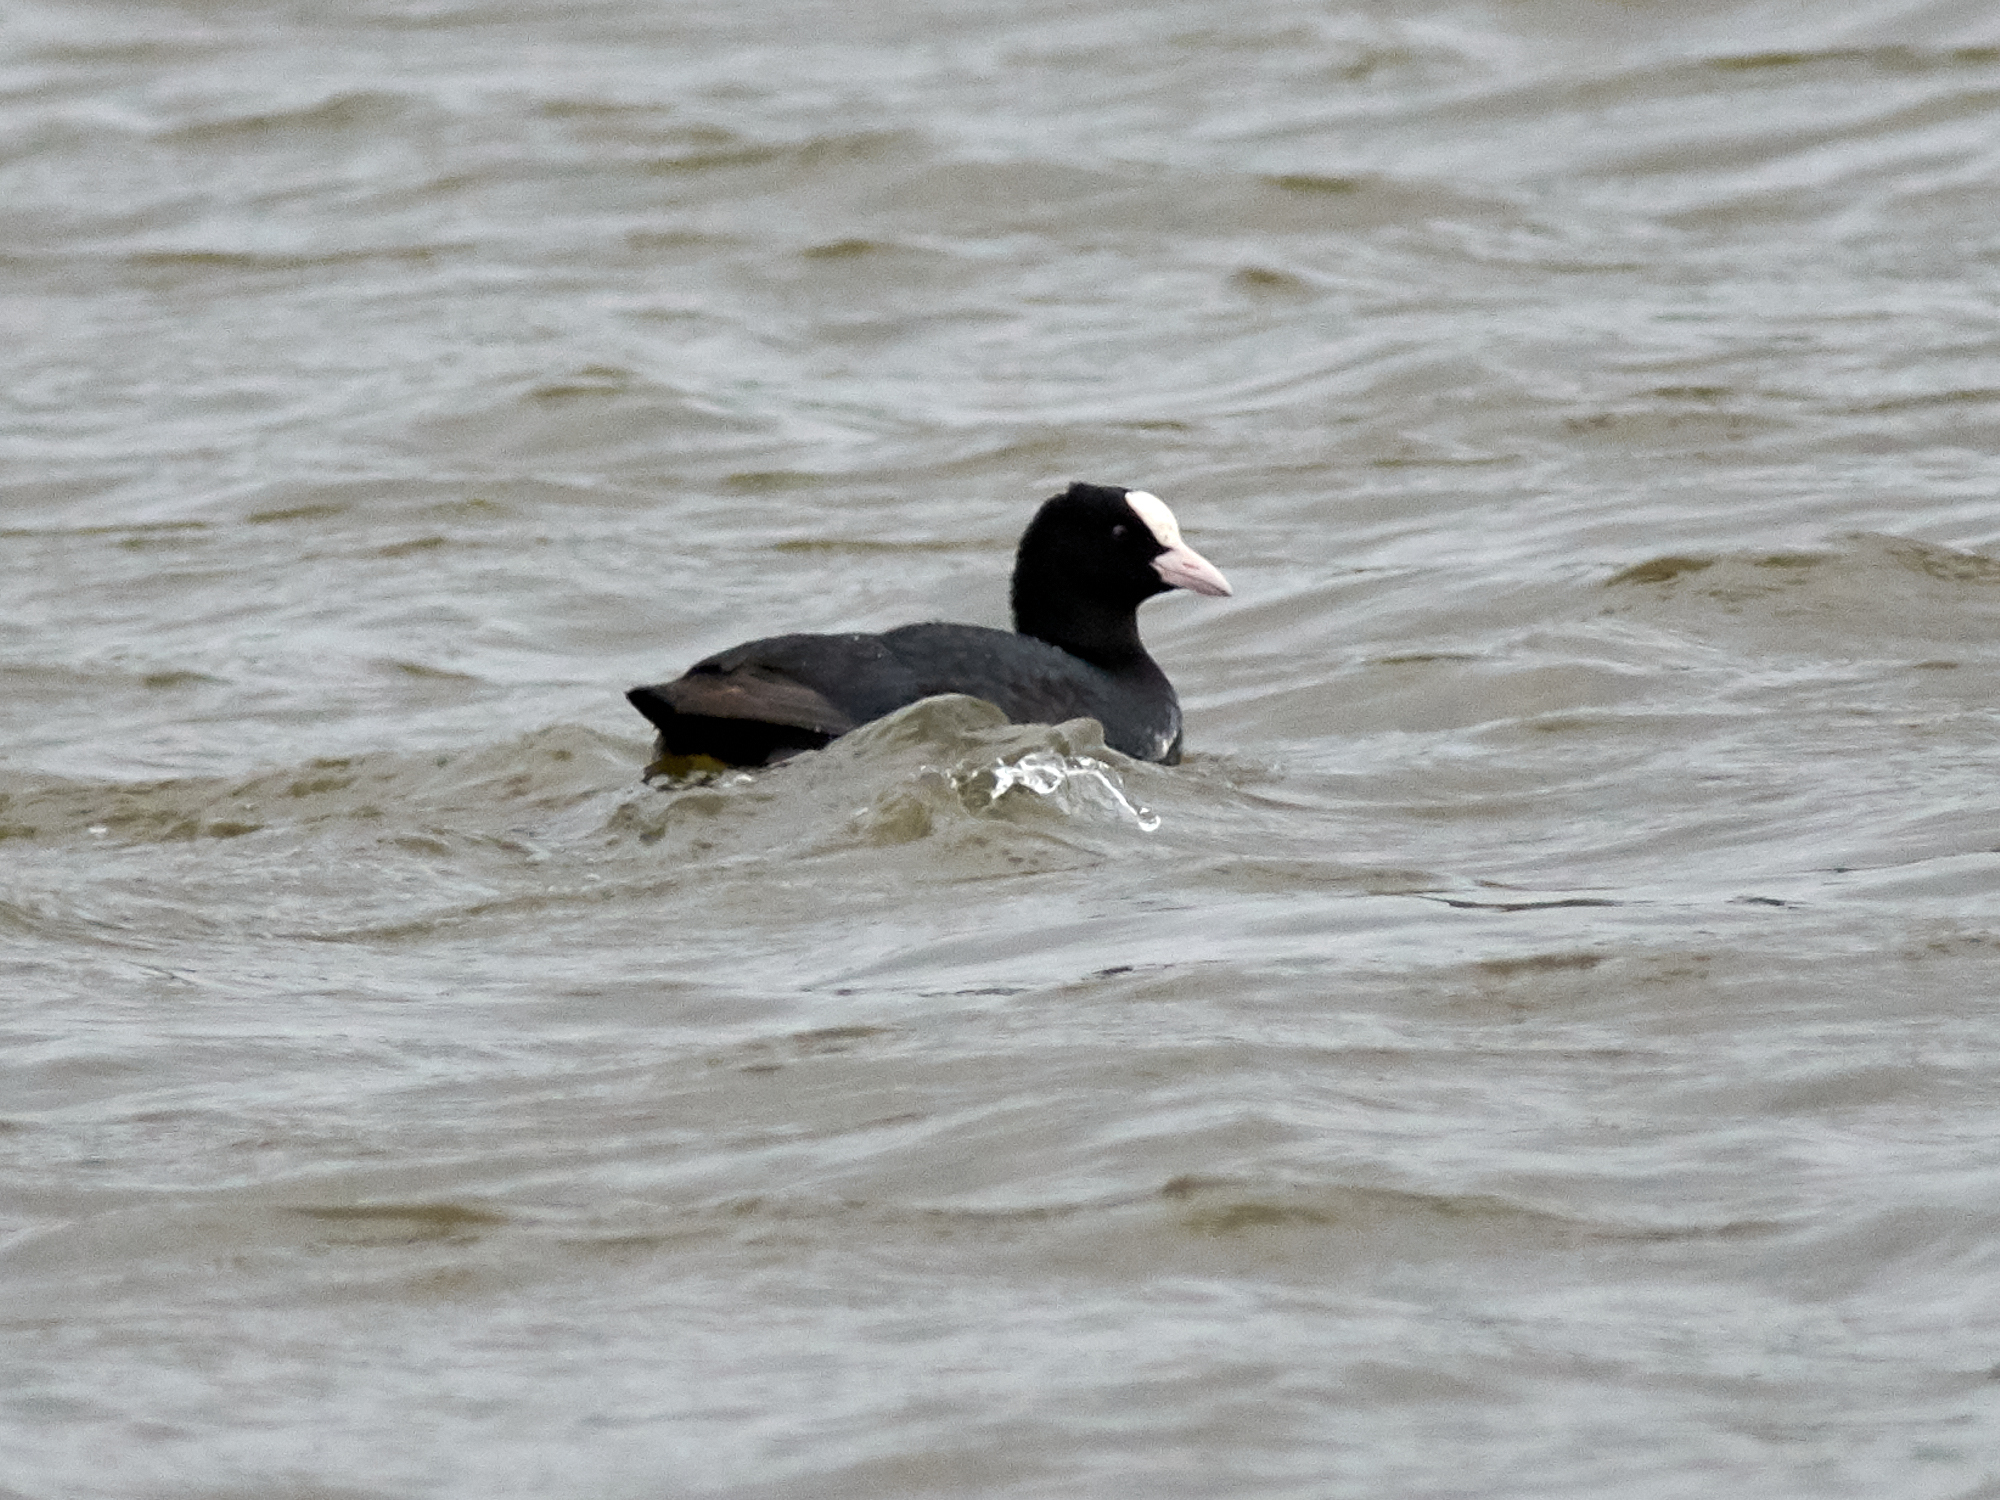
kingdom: Animalia
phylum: Chordata
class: Aves
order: Gruiformes
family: Rallidae
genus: Fulica
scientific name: Fulica atra
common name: Eurasian coot
